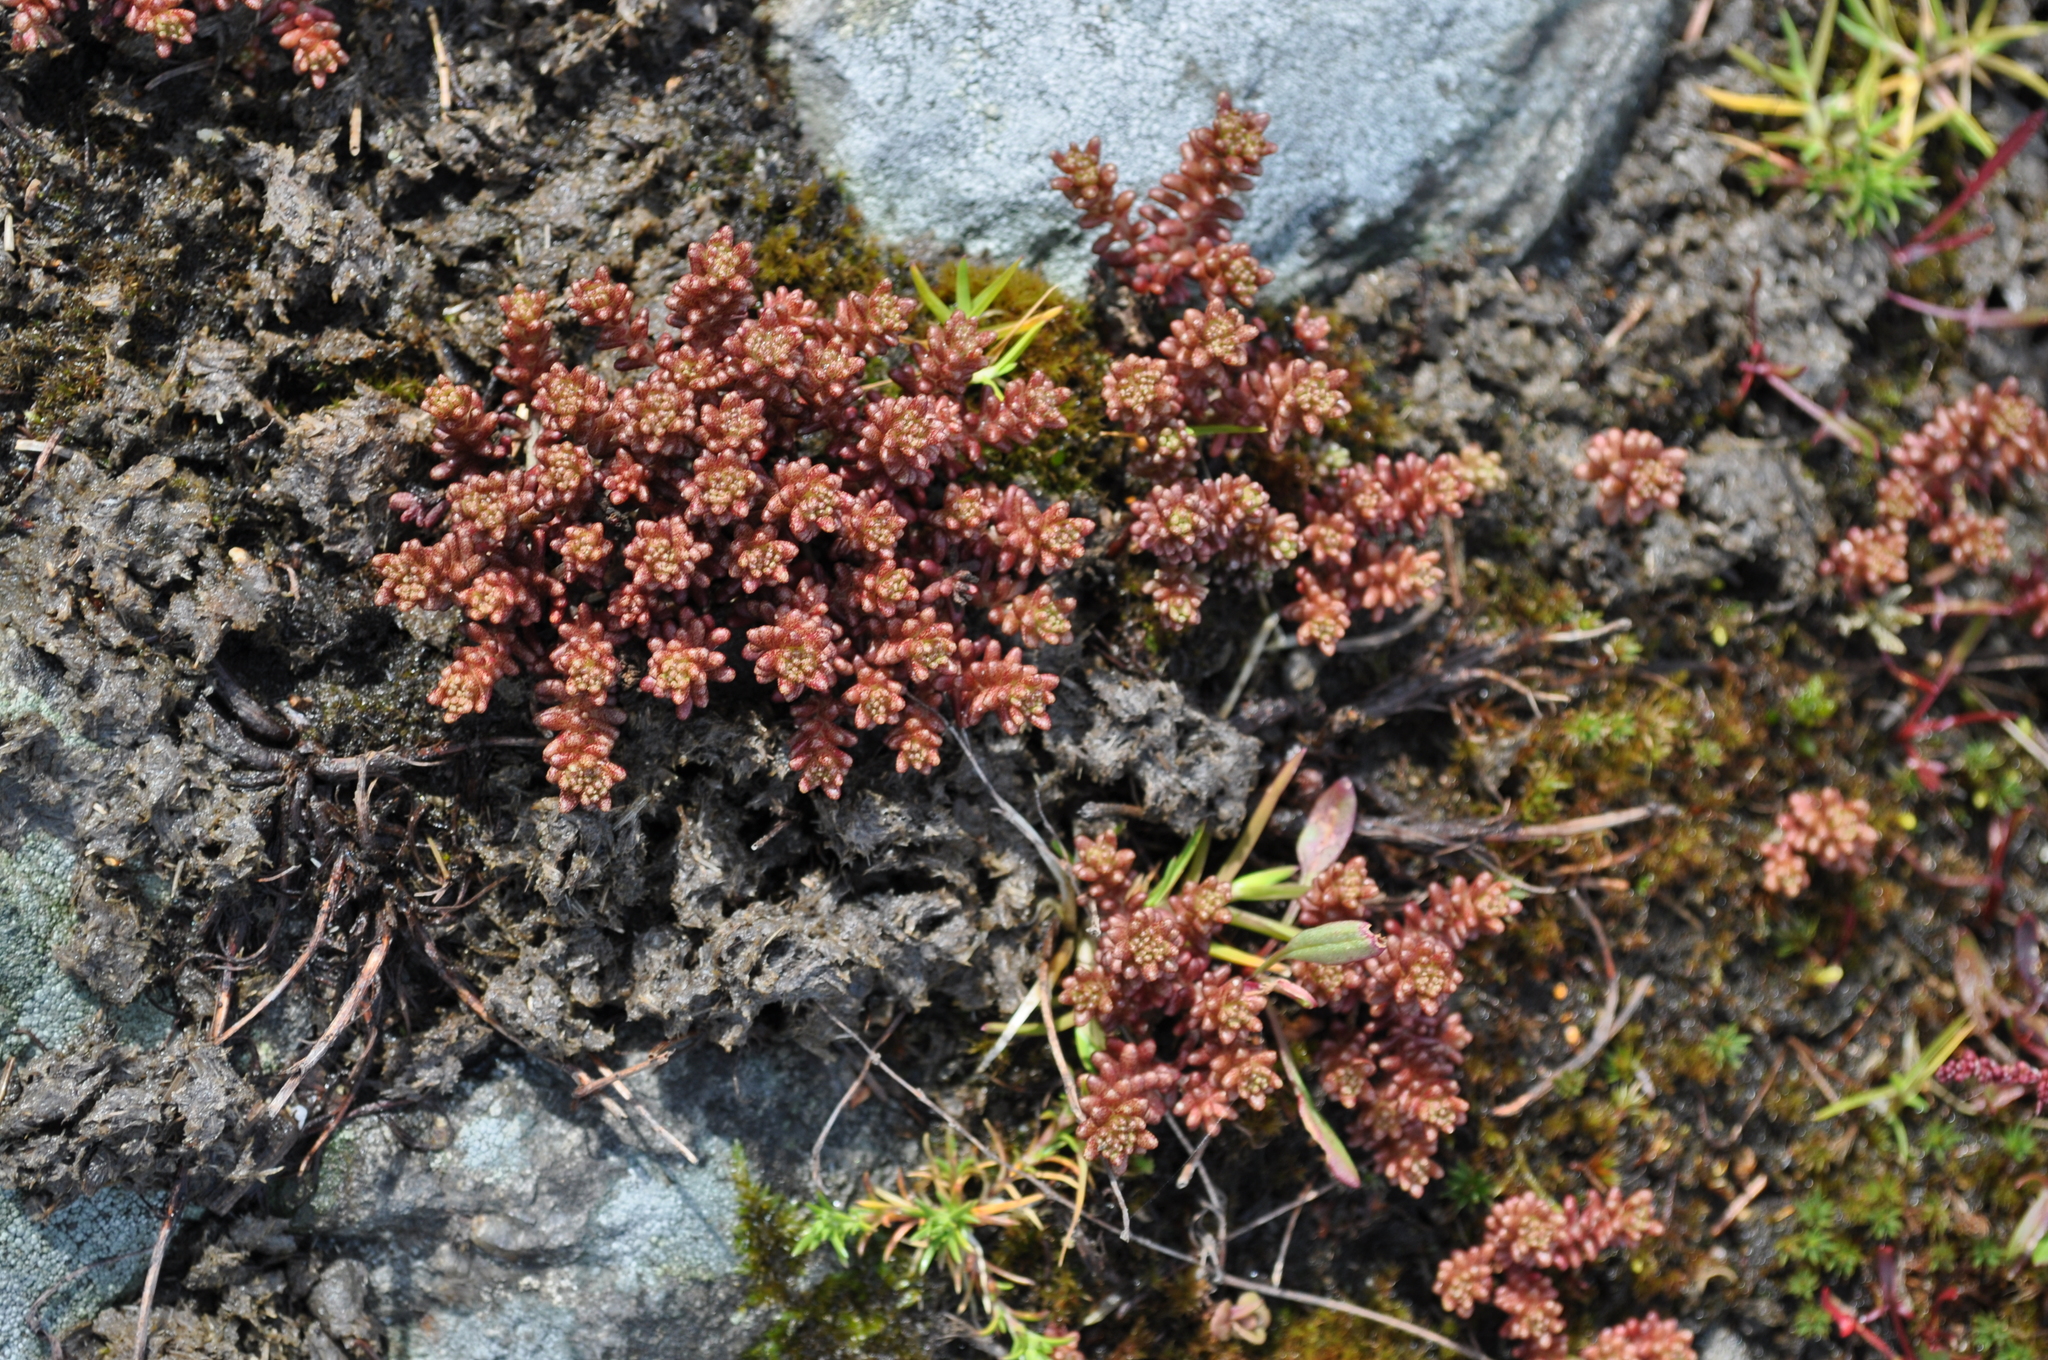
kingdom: Plantae
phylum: Tracheophyta
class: Magnoliopsida
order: Saxifragales
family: Crassulaceae
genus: Sedum
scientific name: Sedum annuum
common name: Annual stonecrop
